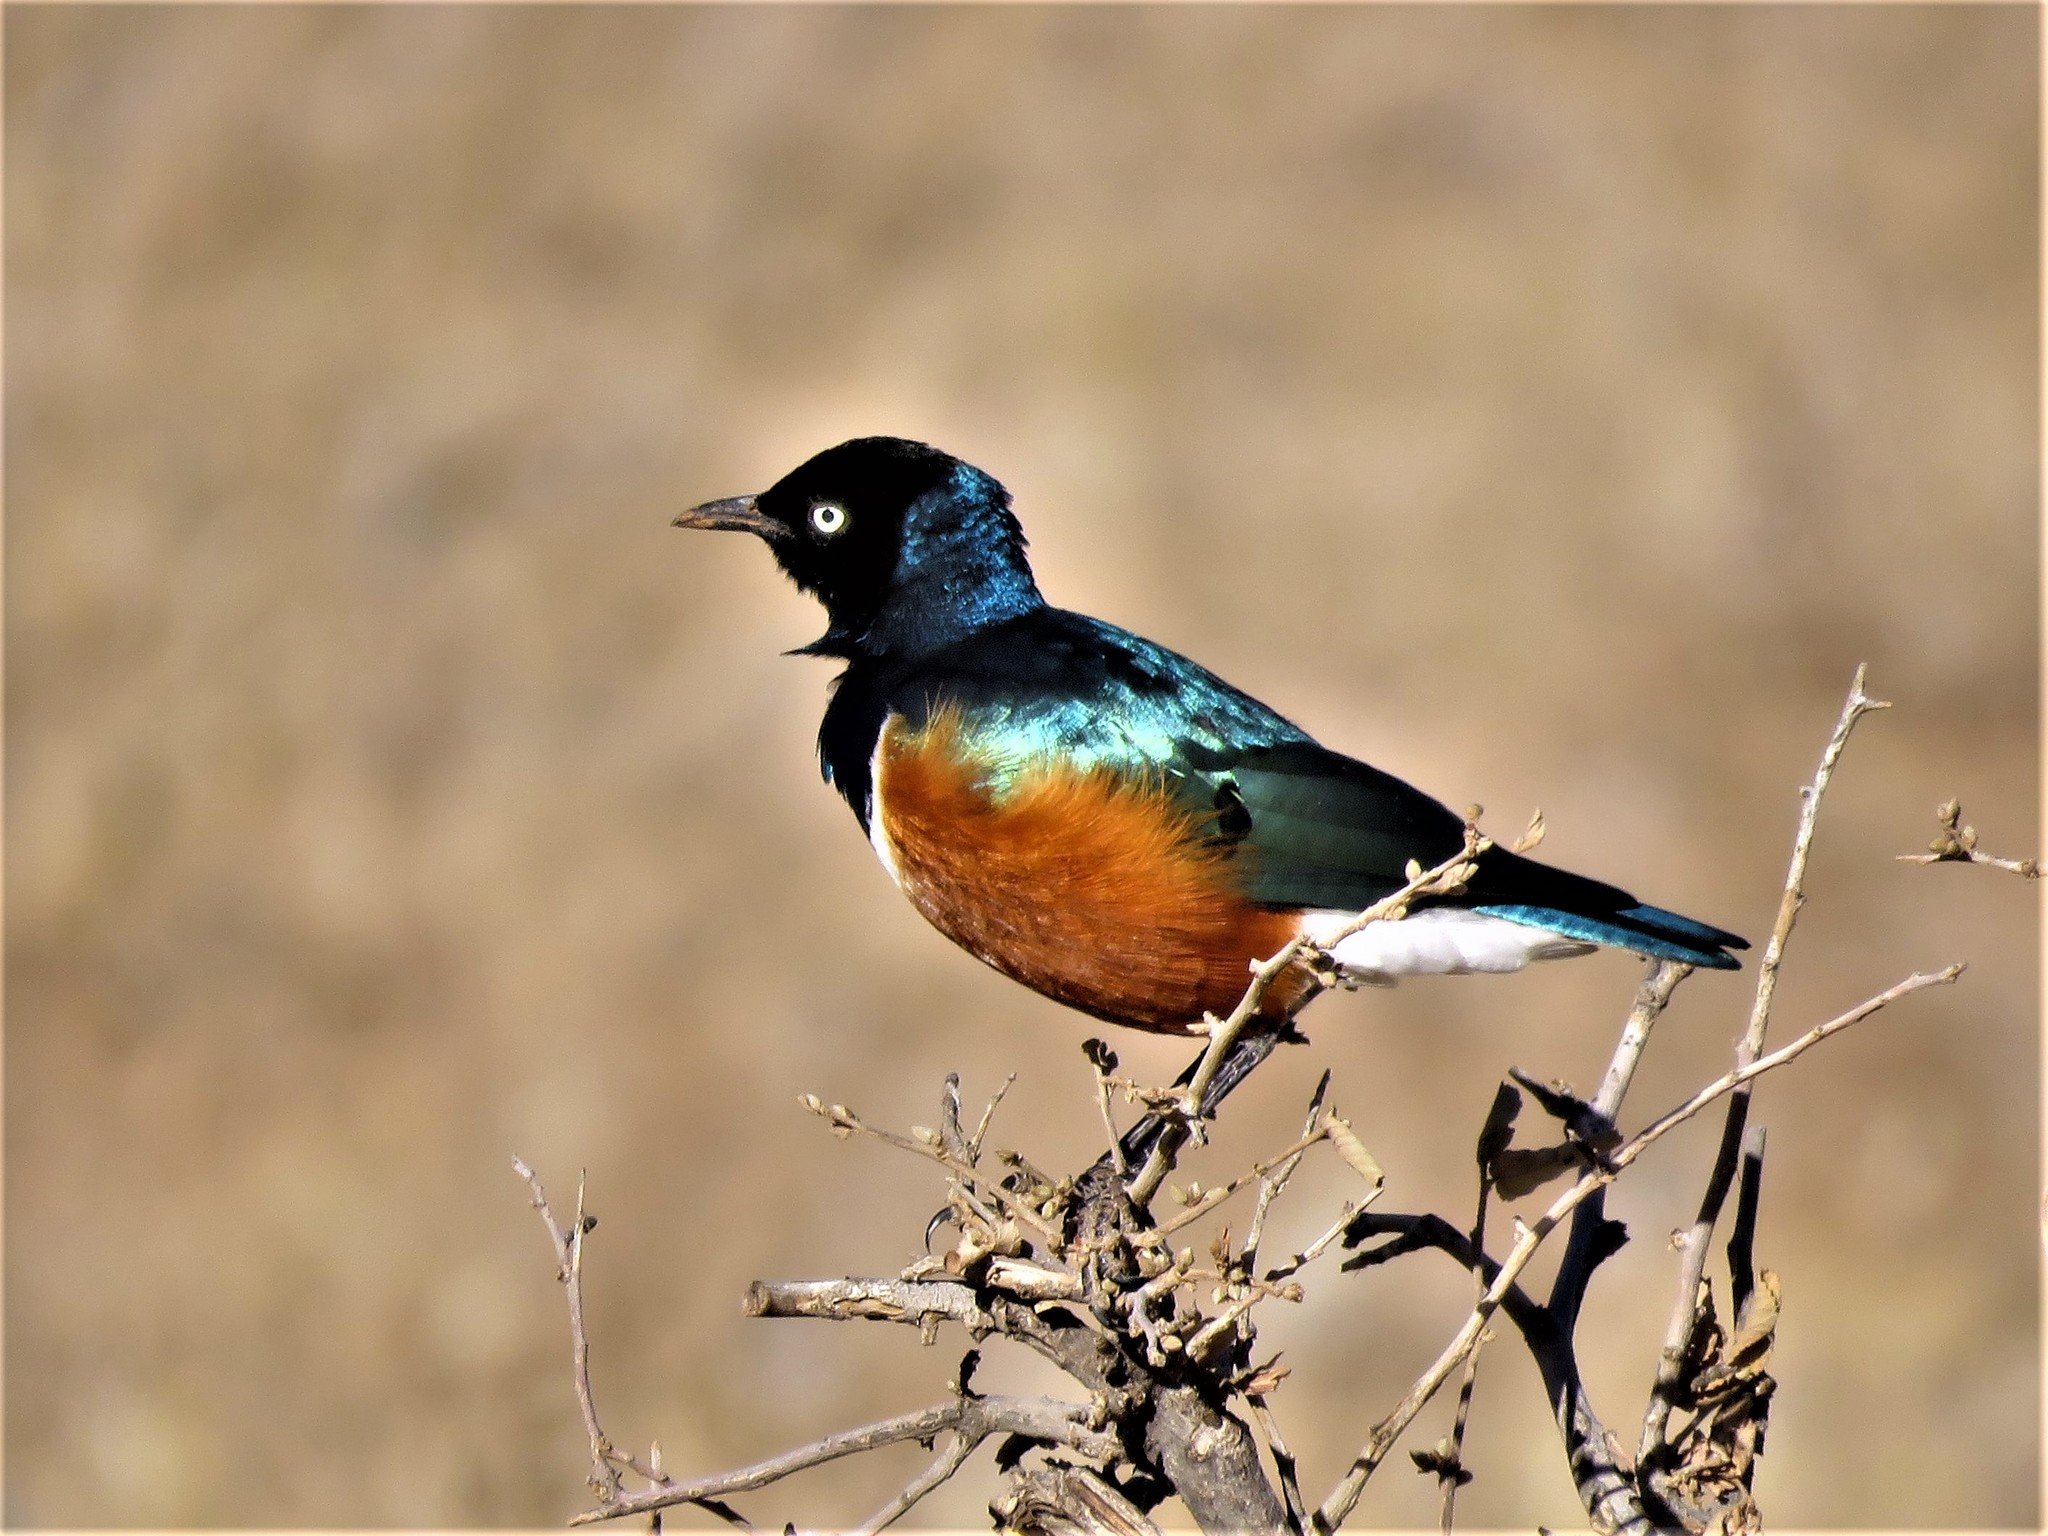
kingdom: Animalia
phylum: Chordata
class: Aves
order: Passeriformes
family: Sturnidae
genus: Lamprotornis
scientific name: Lamprotornis superbus
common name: Superb starling
